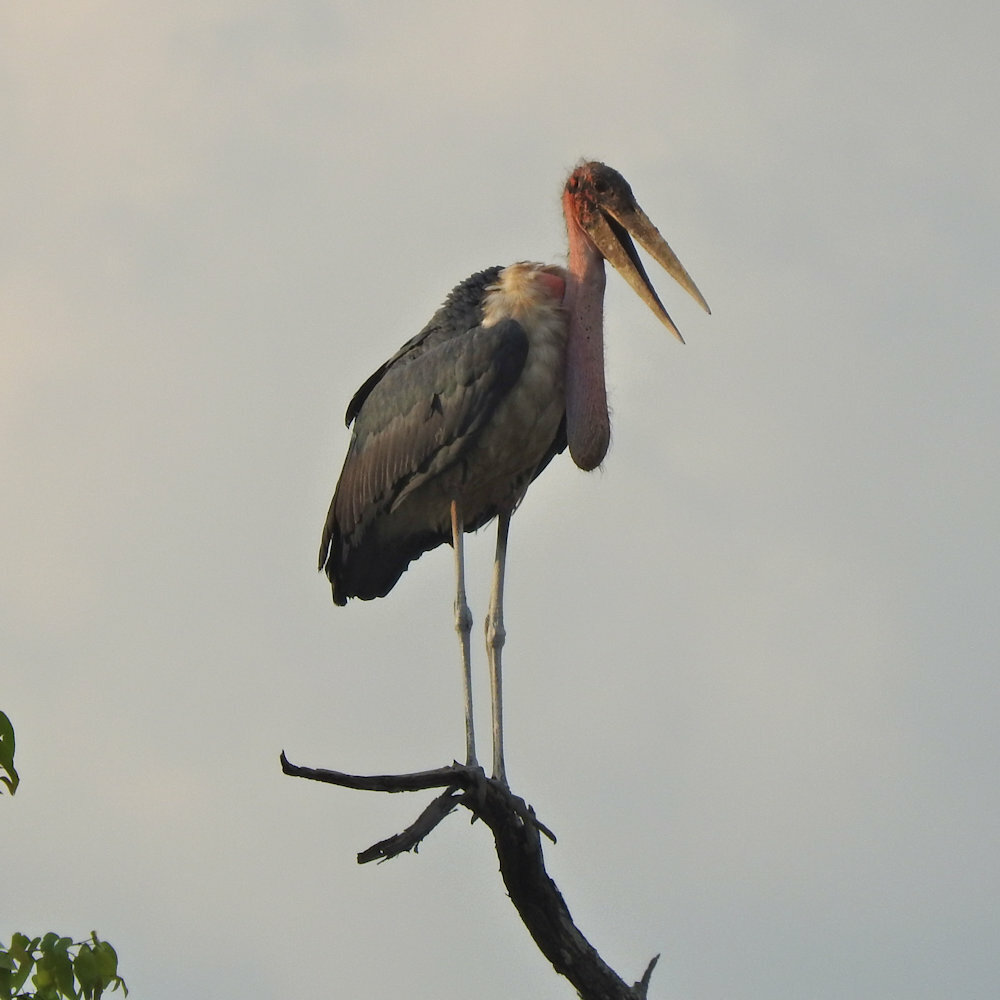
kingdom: Animalia
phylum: Chordata
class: Aves
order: Ciconiiformes
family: Ciconiidae
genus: Leptoptilos
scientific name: Leptoptilos crumenifer
